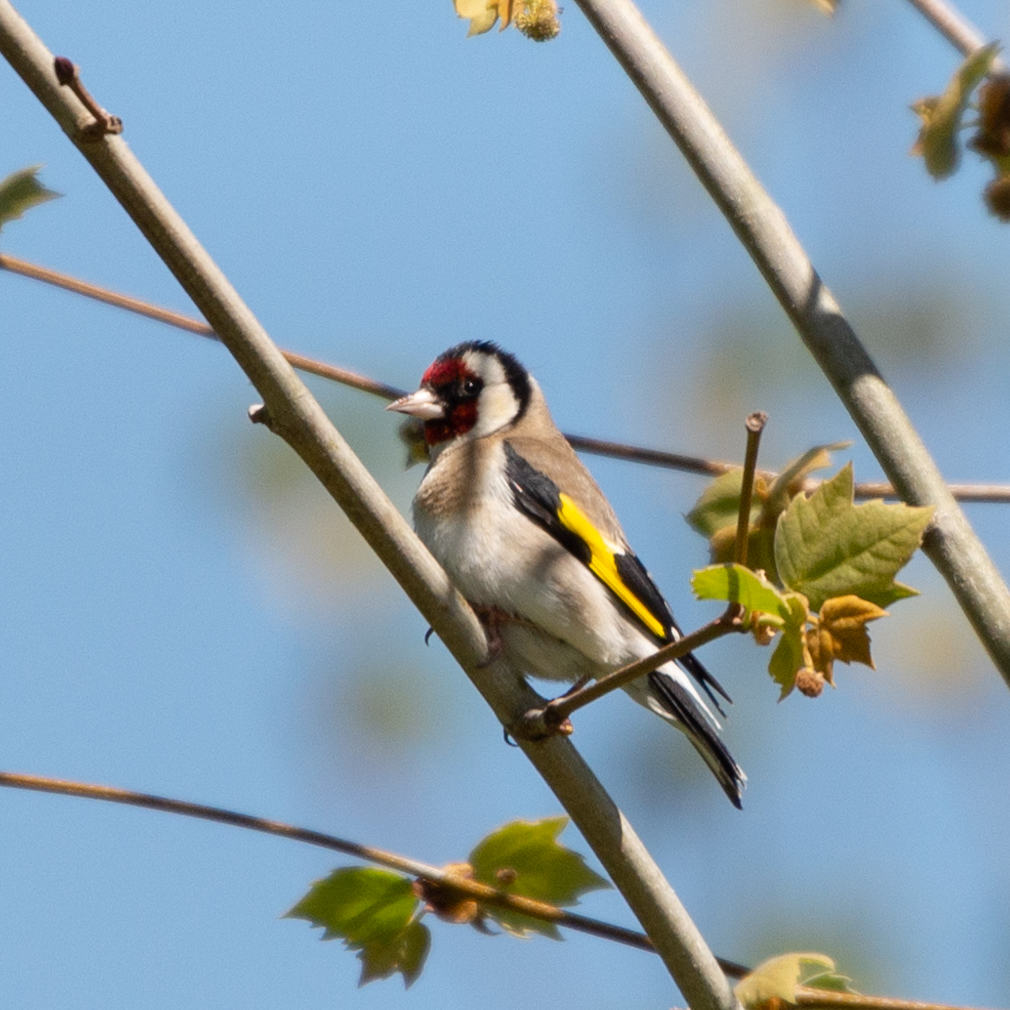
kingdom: Animalia
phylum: Chordata
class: Aves
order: Passeriformes
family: Fringillidae
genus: Carduelis
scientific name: Carduelis carduelis
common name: European goldfinch
